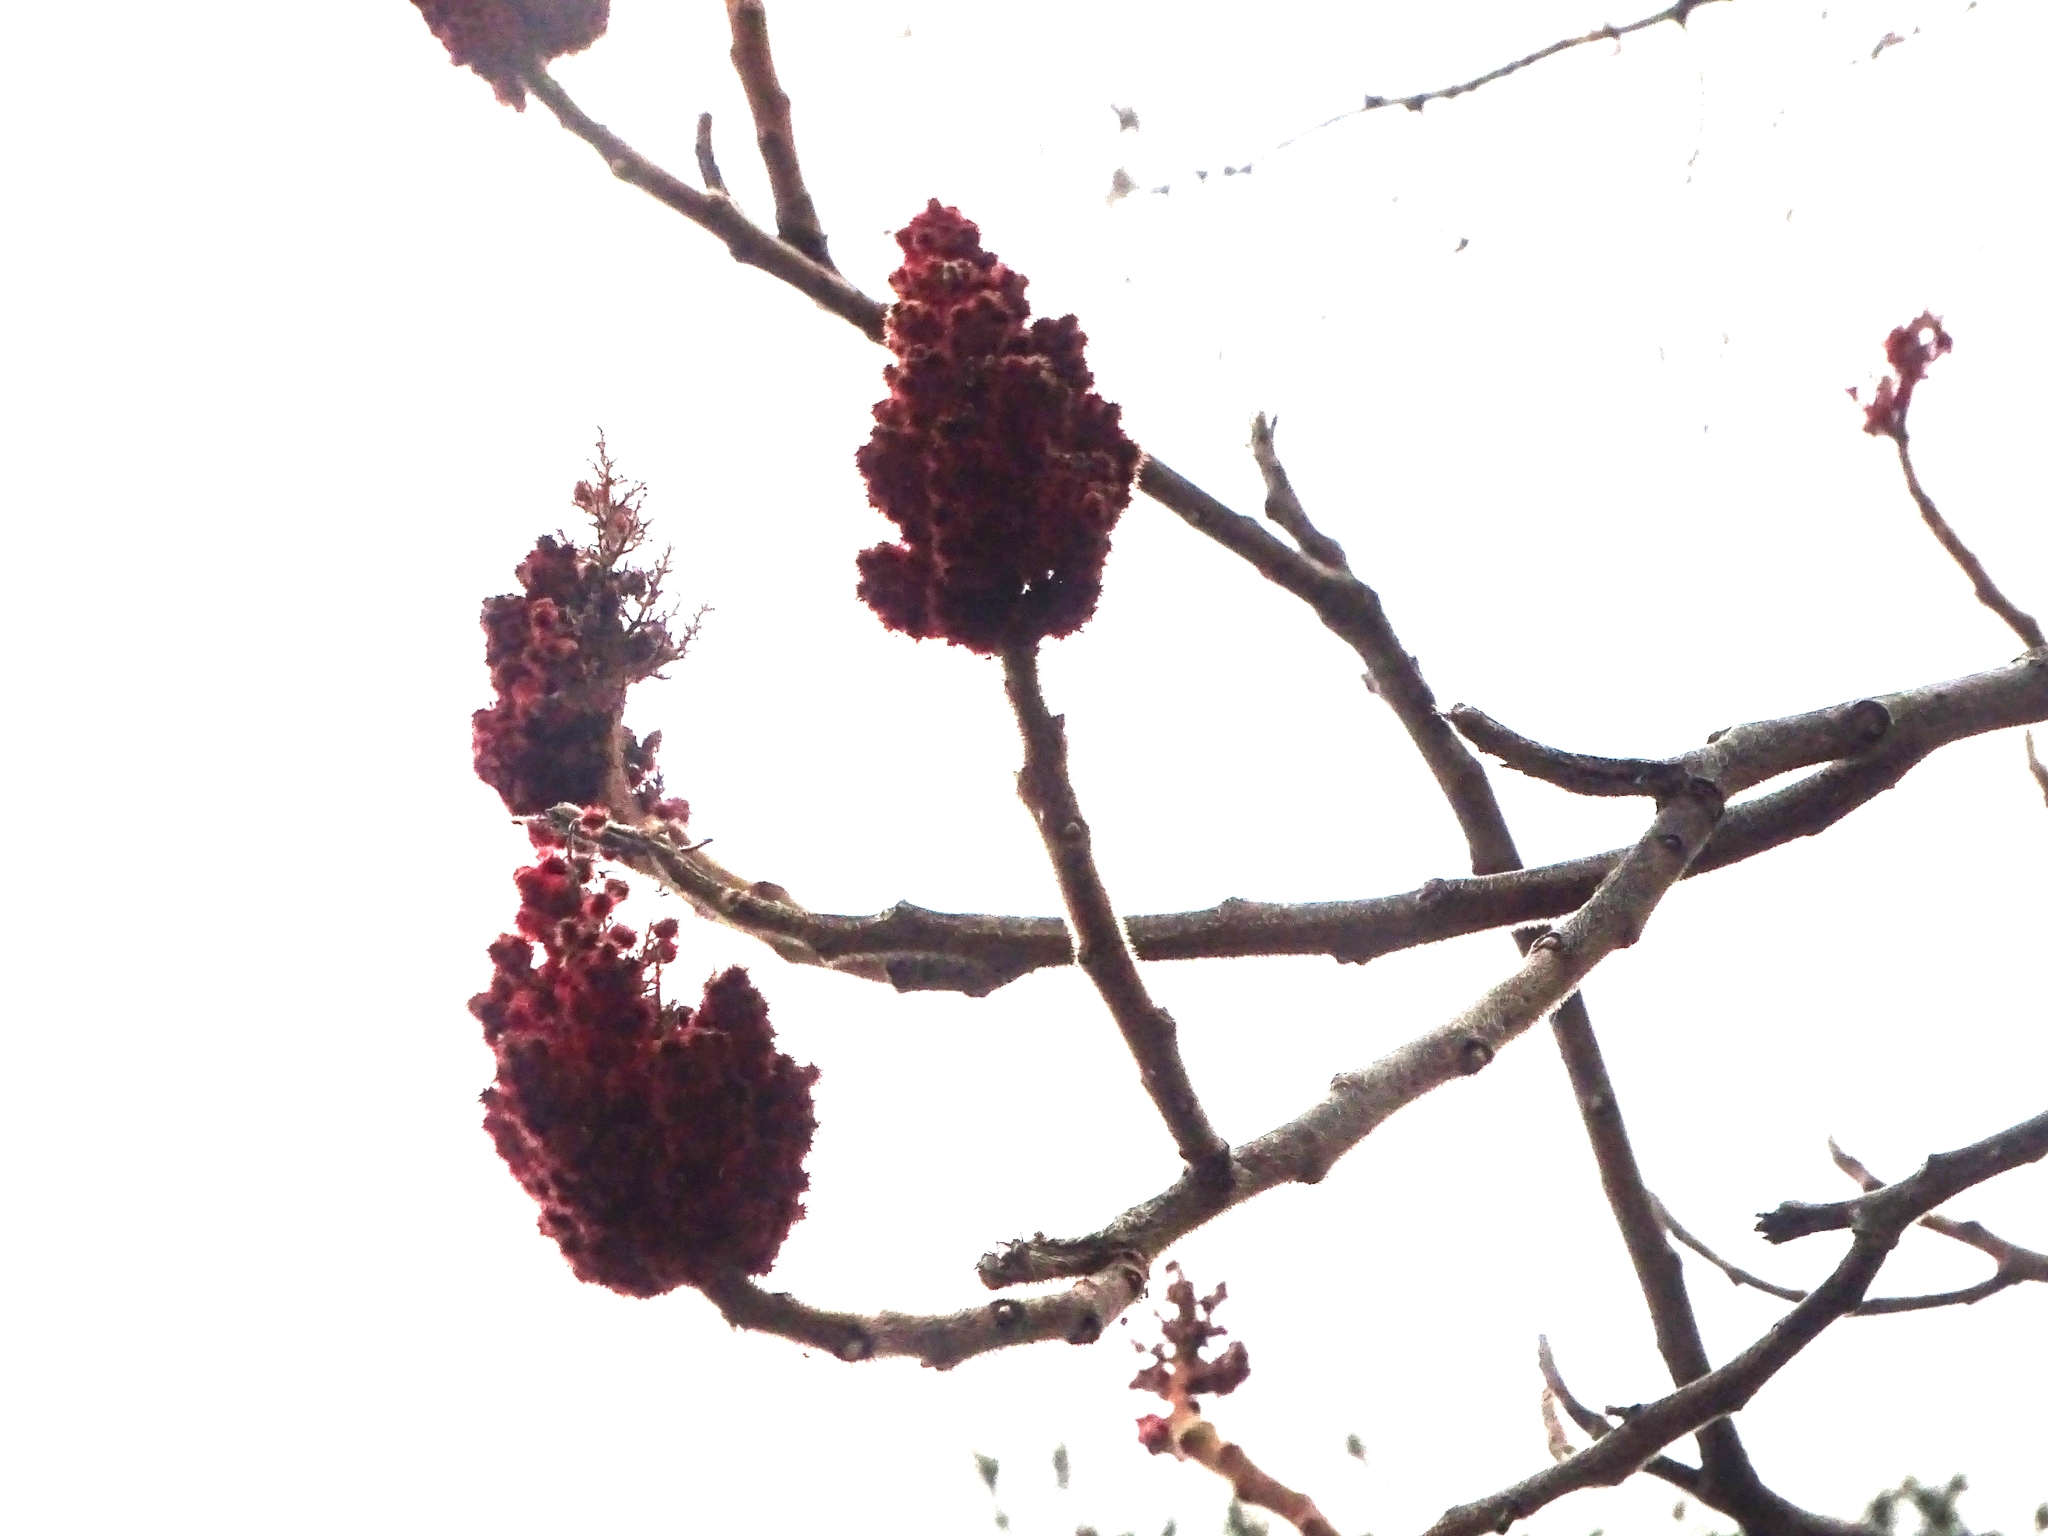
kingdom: Plantae
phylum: Tracheophyta
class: Magnoliopsida
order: Sapindales
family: Anacardiaceae
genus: Rhus
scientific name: Rhus typhina
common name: Staghorn sumac
